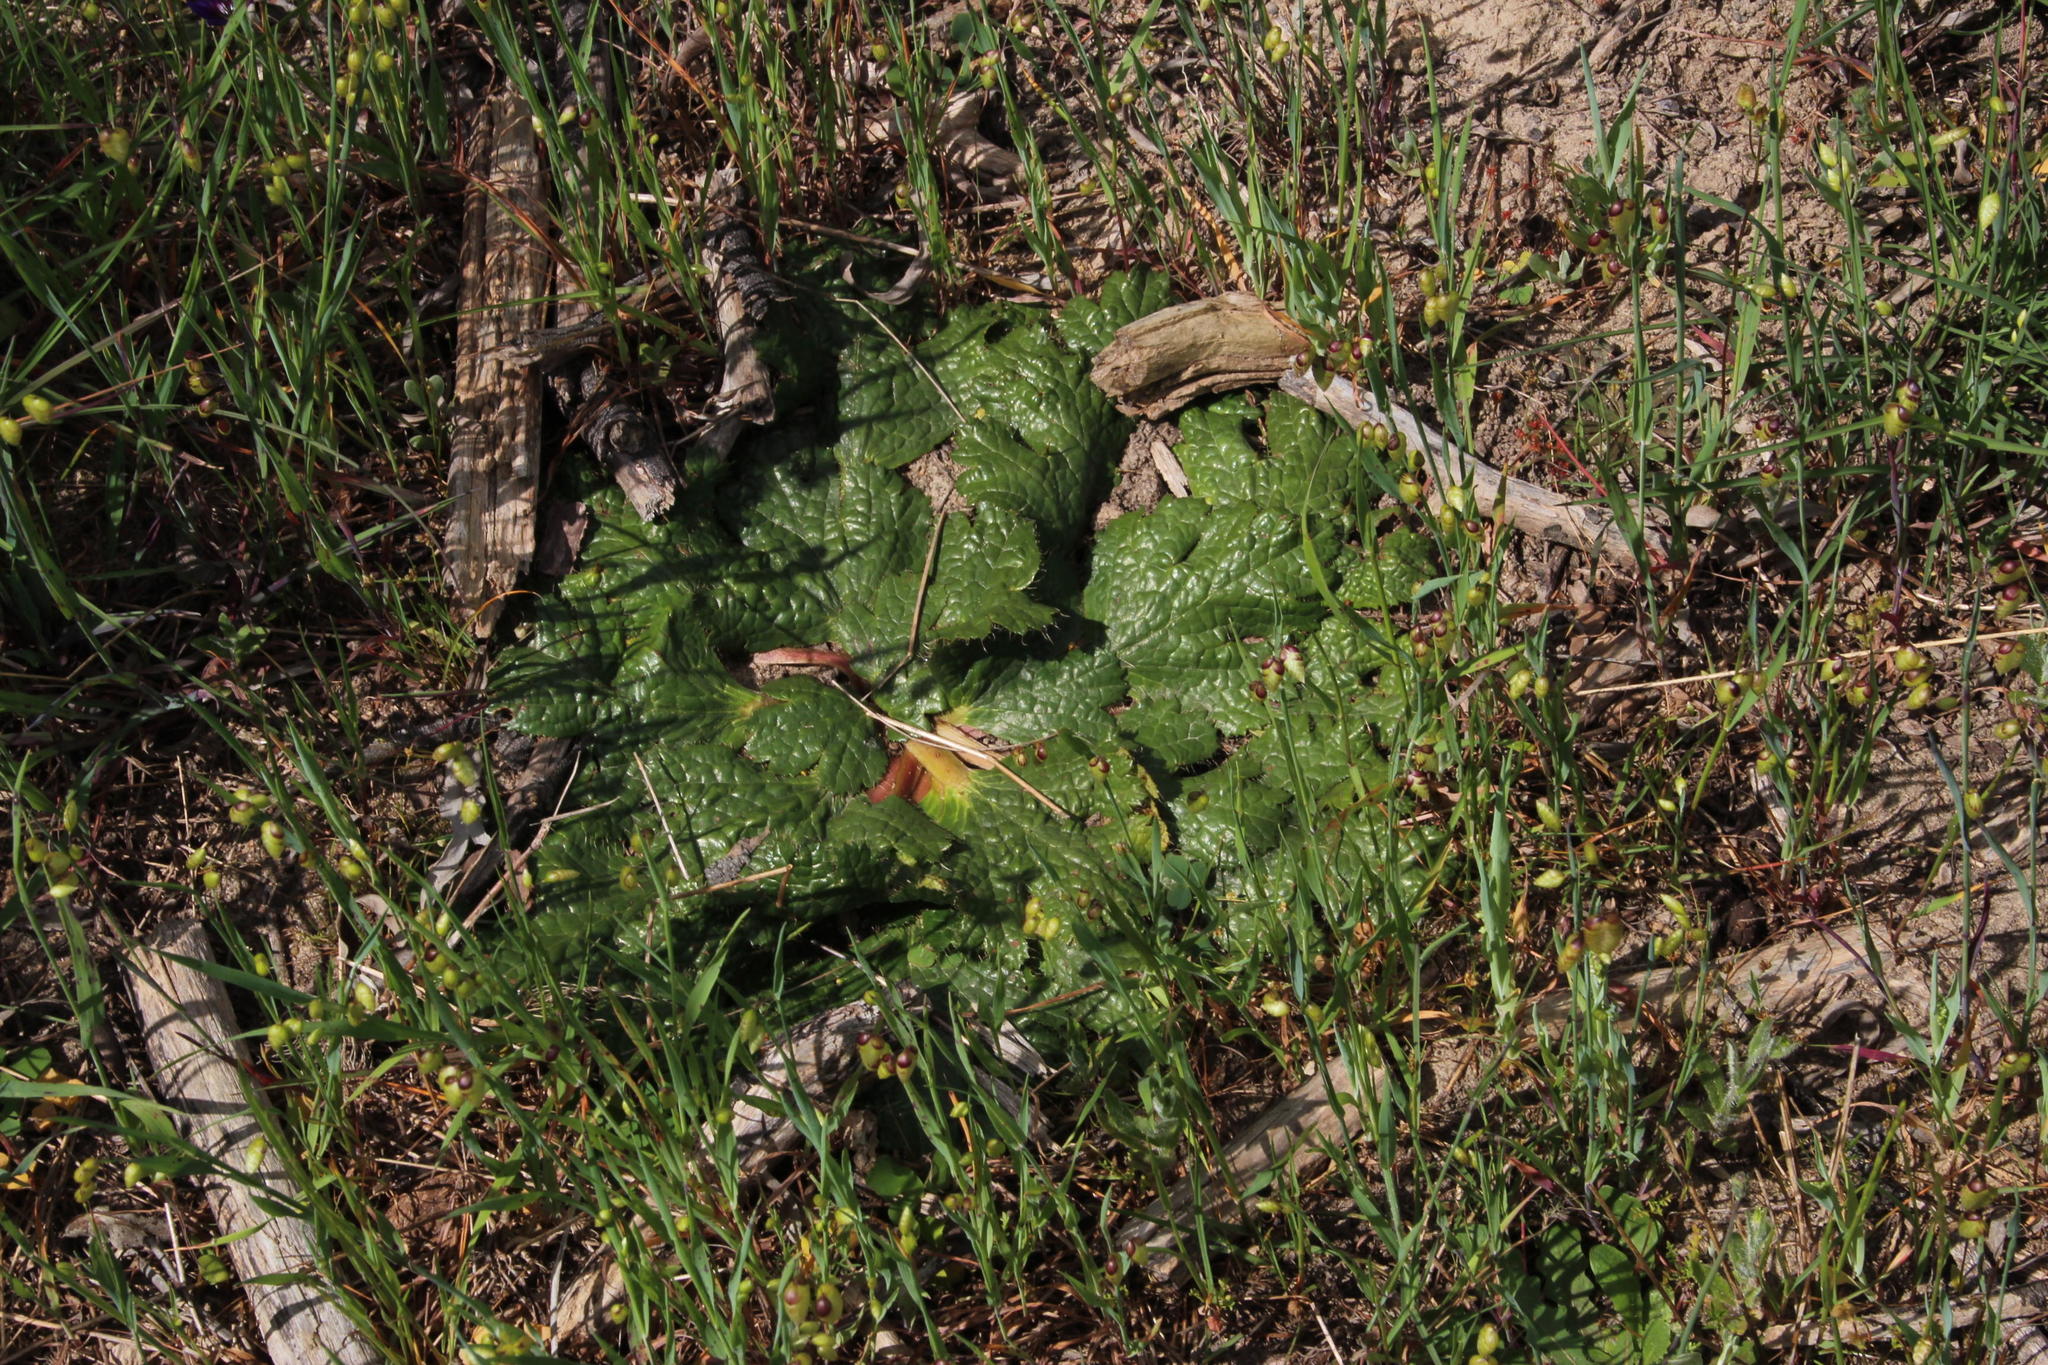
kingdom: Plantae
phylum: Tracheophyta
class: Magnoliopsida
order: Apiales
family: Apiaceae
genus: Arctopus
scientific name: Arctopus dregei
